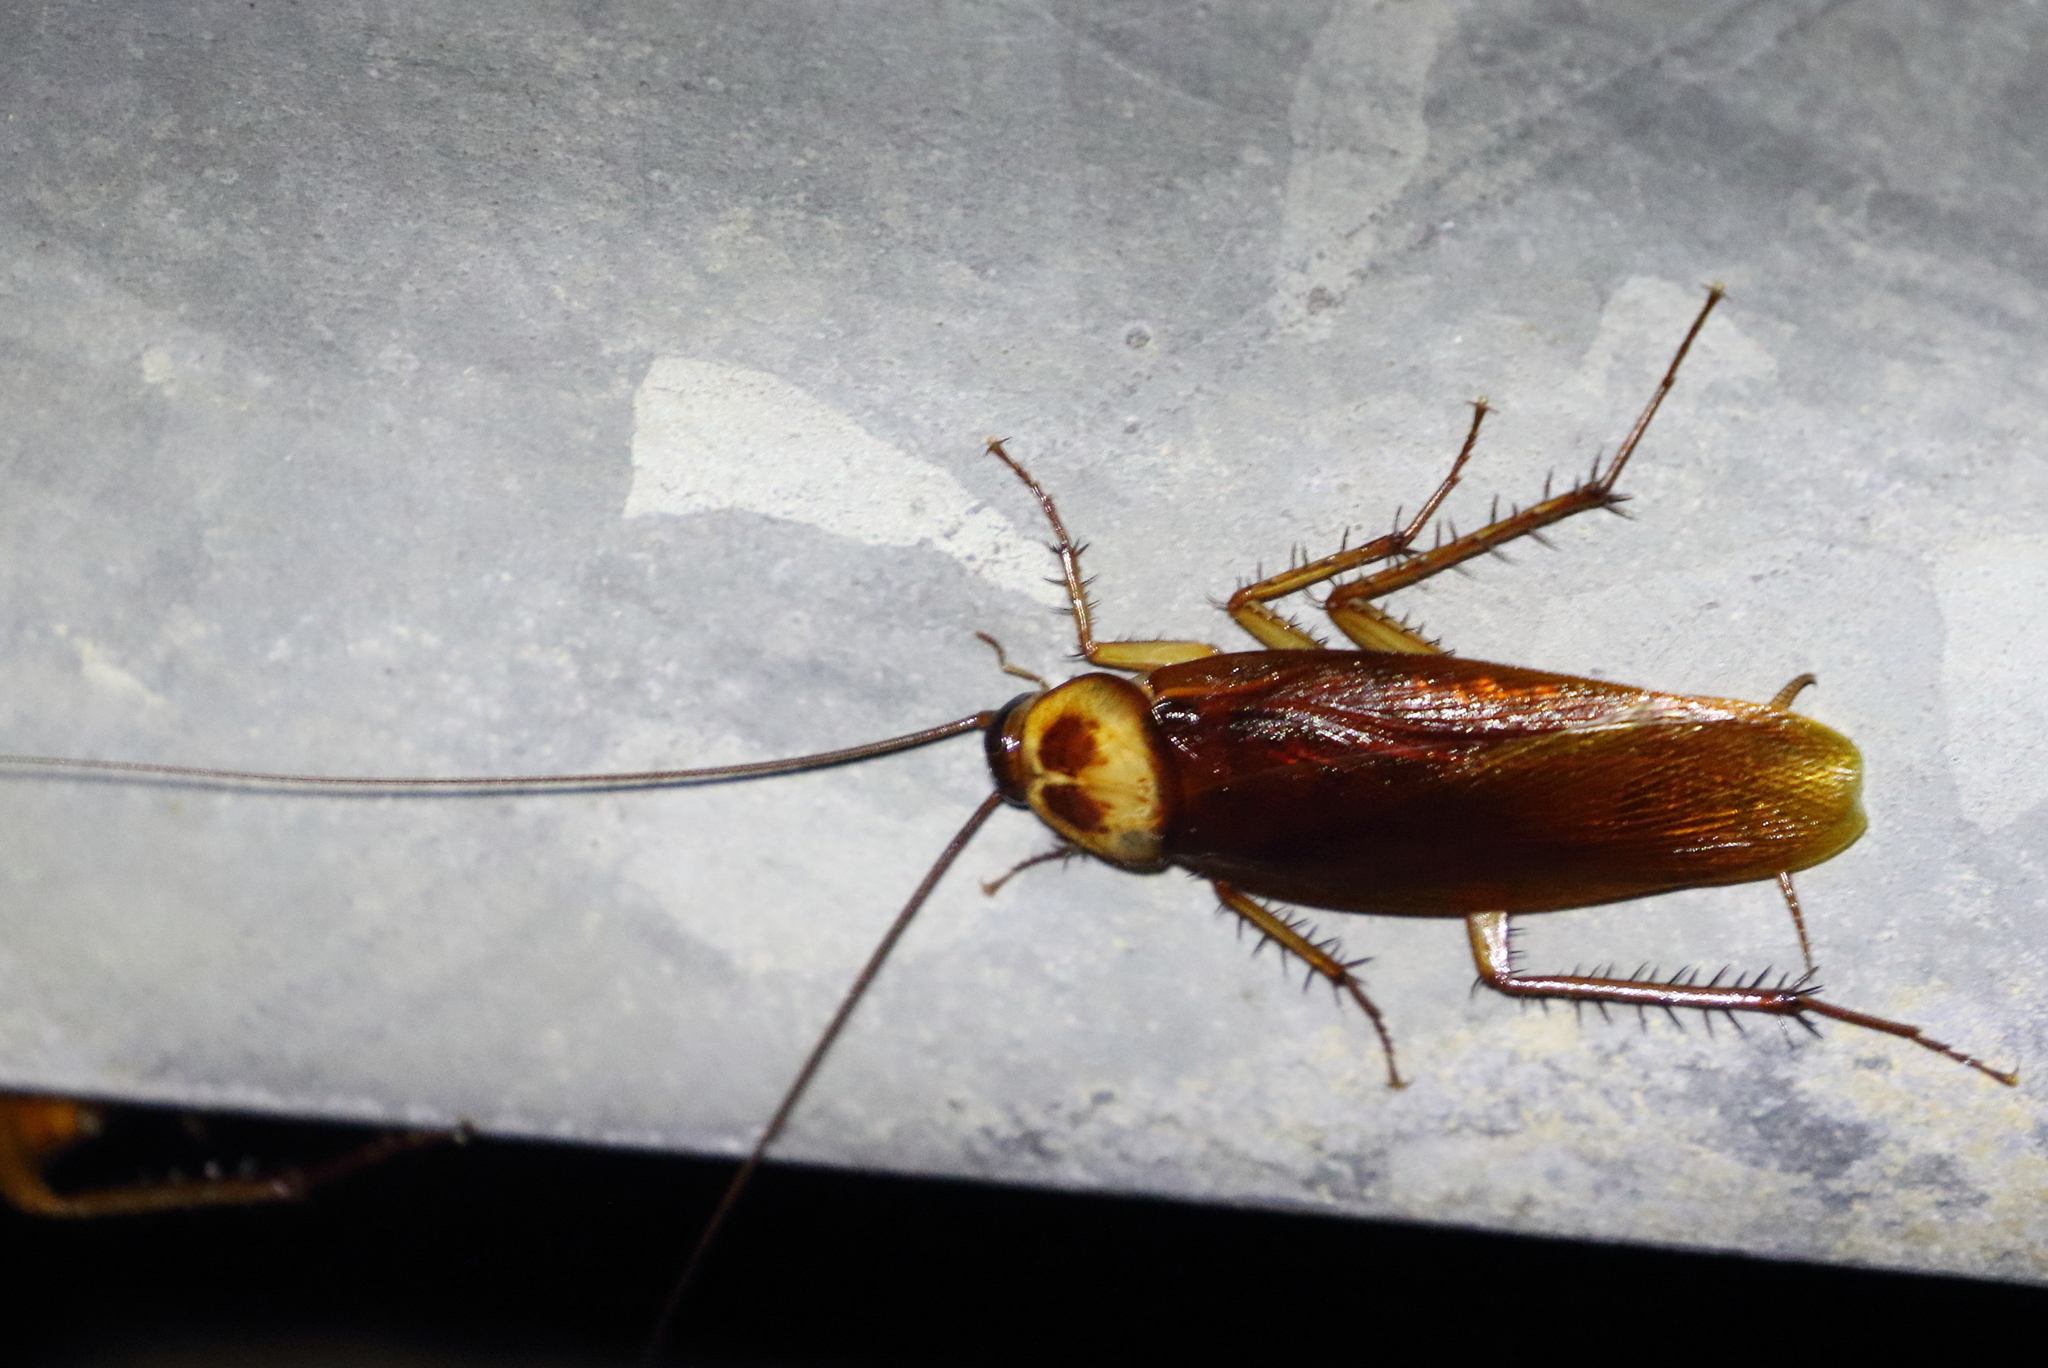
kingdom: Animalia
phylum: Arthropoda
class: Insecta
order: Blattodea
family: Blattidae
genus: Periplaneta
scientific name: Periplaneta americana
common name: American cockroach
